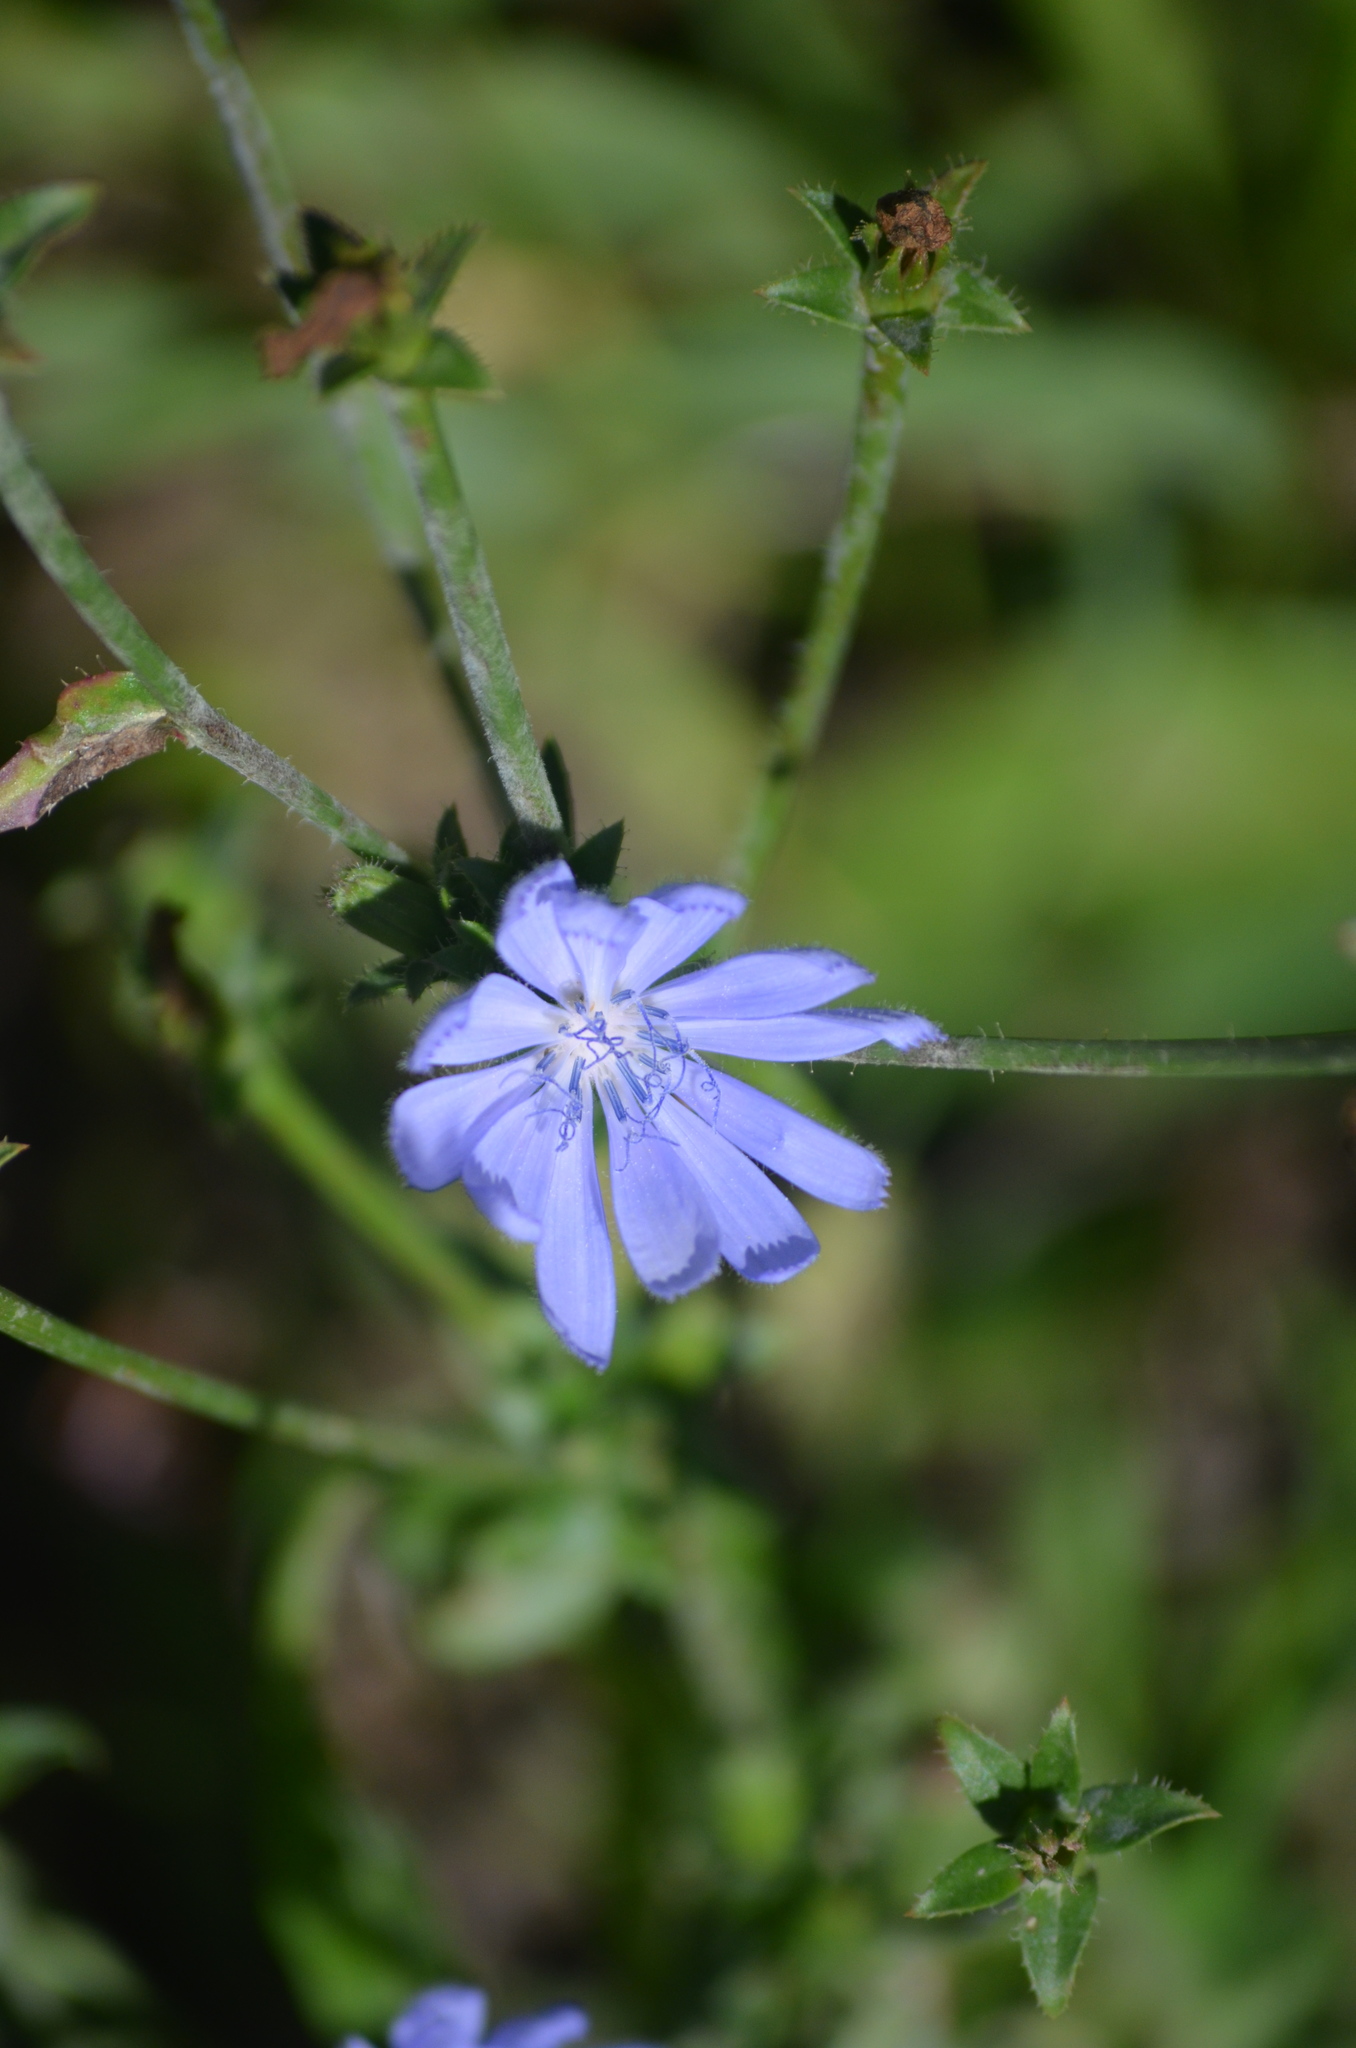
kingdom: Plantae
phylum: Tracheophyta
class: Magnoliopsida
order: Asterales
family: Asteraceae
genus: Cichorium
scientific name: Cichorium intybus
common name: Chicory
